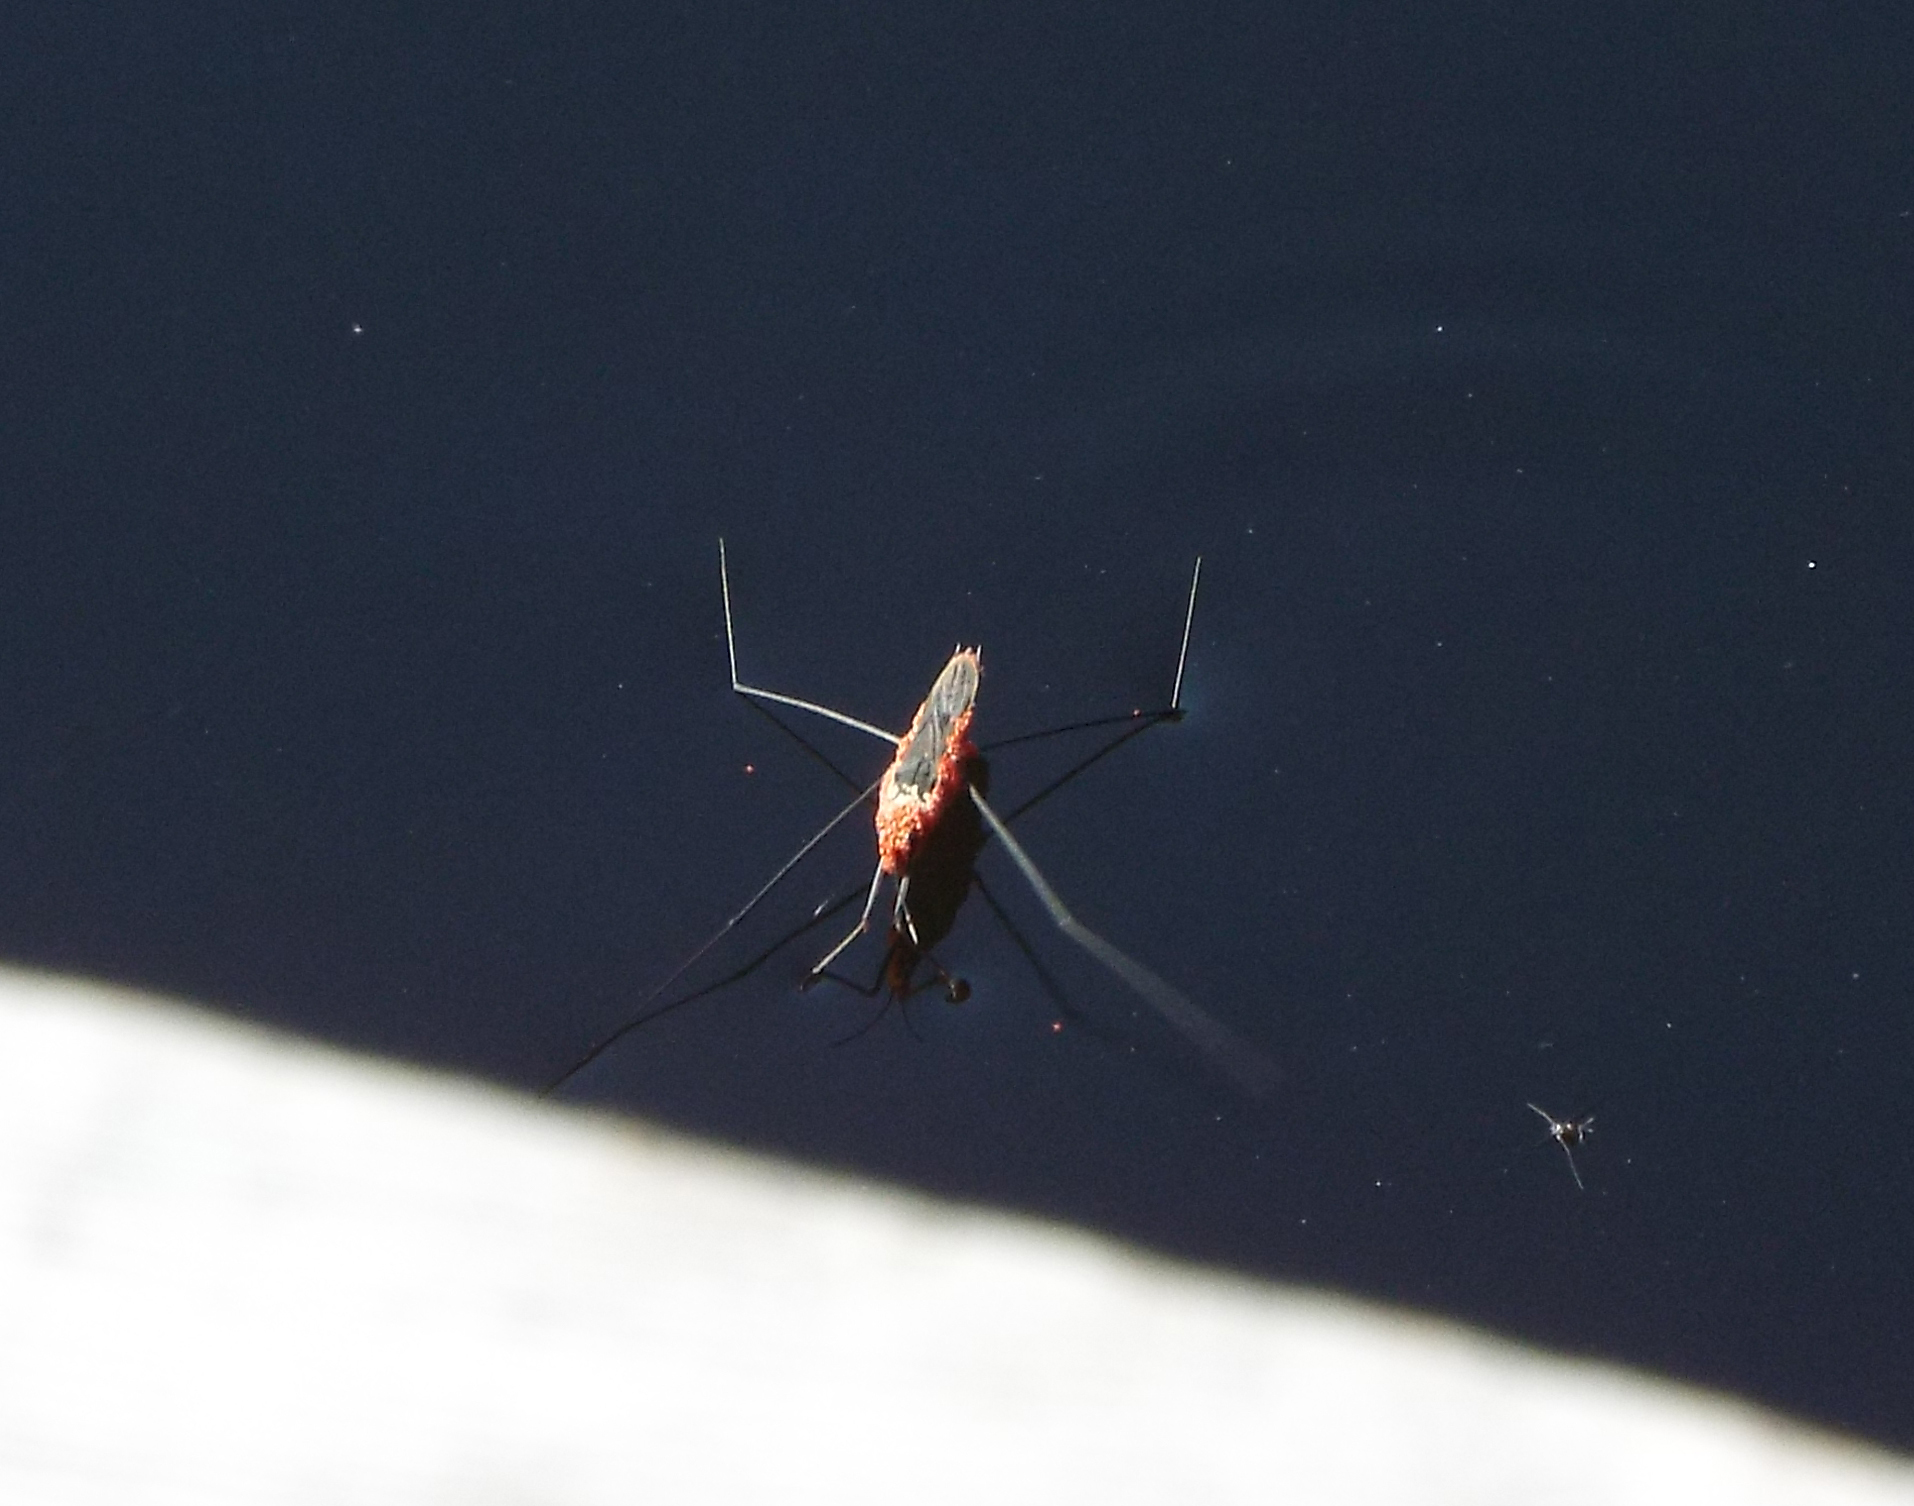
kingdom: Animalia
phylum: Arthropoda
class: Insecta
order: Hemiptera
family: Gerridae
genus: Aquarius
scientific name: Aquarius paludum
